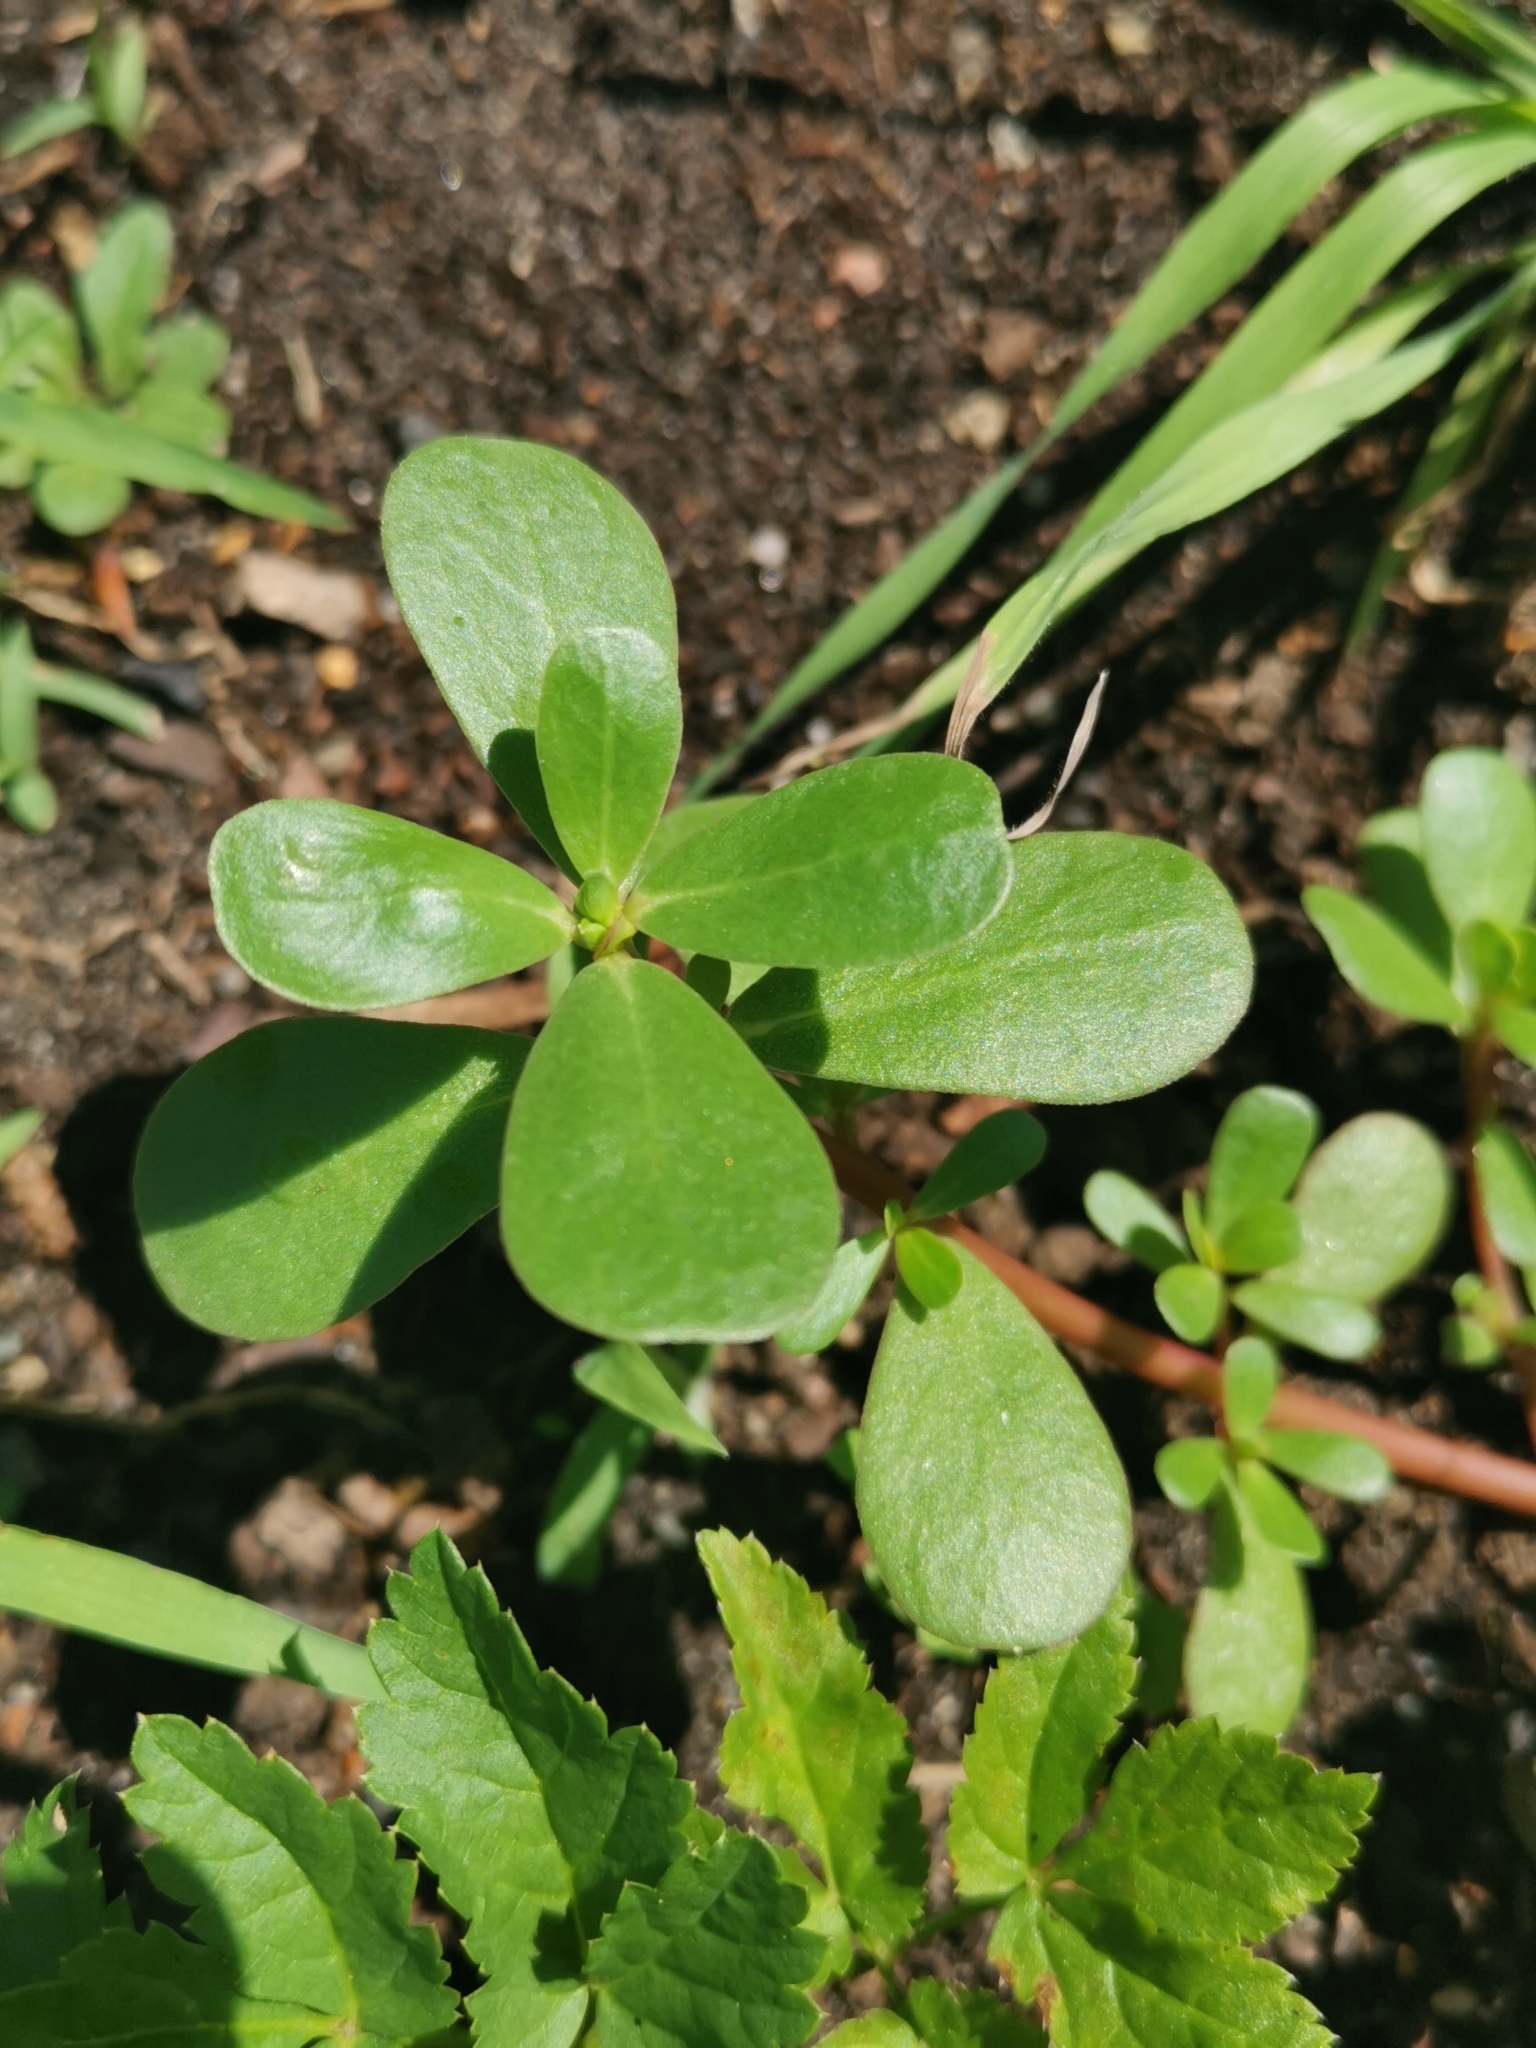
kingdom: Plantae
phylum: Tracheophyta
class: Magnoliopsida
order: Caryophyllales
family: Portulacaceae
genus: Portulaca
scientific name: Portulaca oleracea
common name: Common purslane
